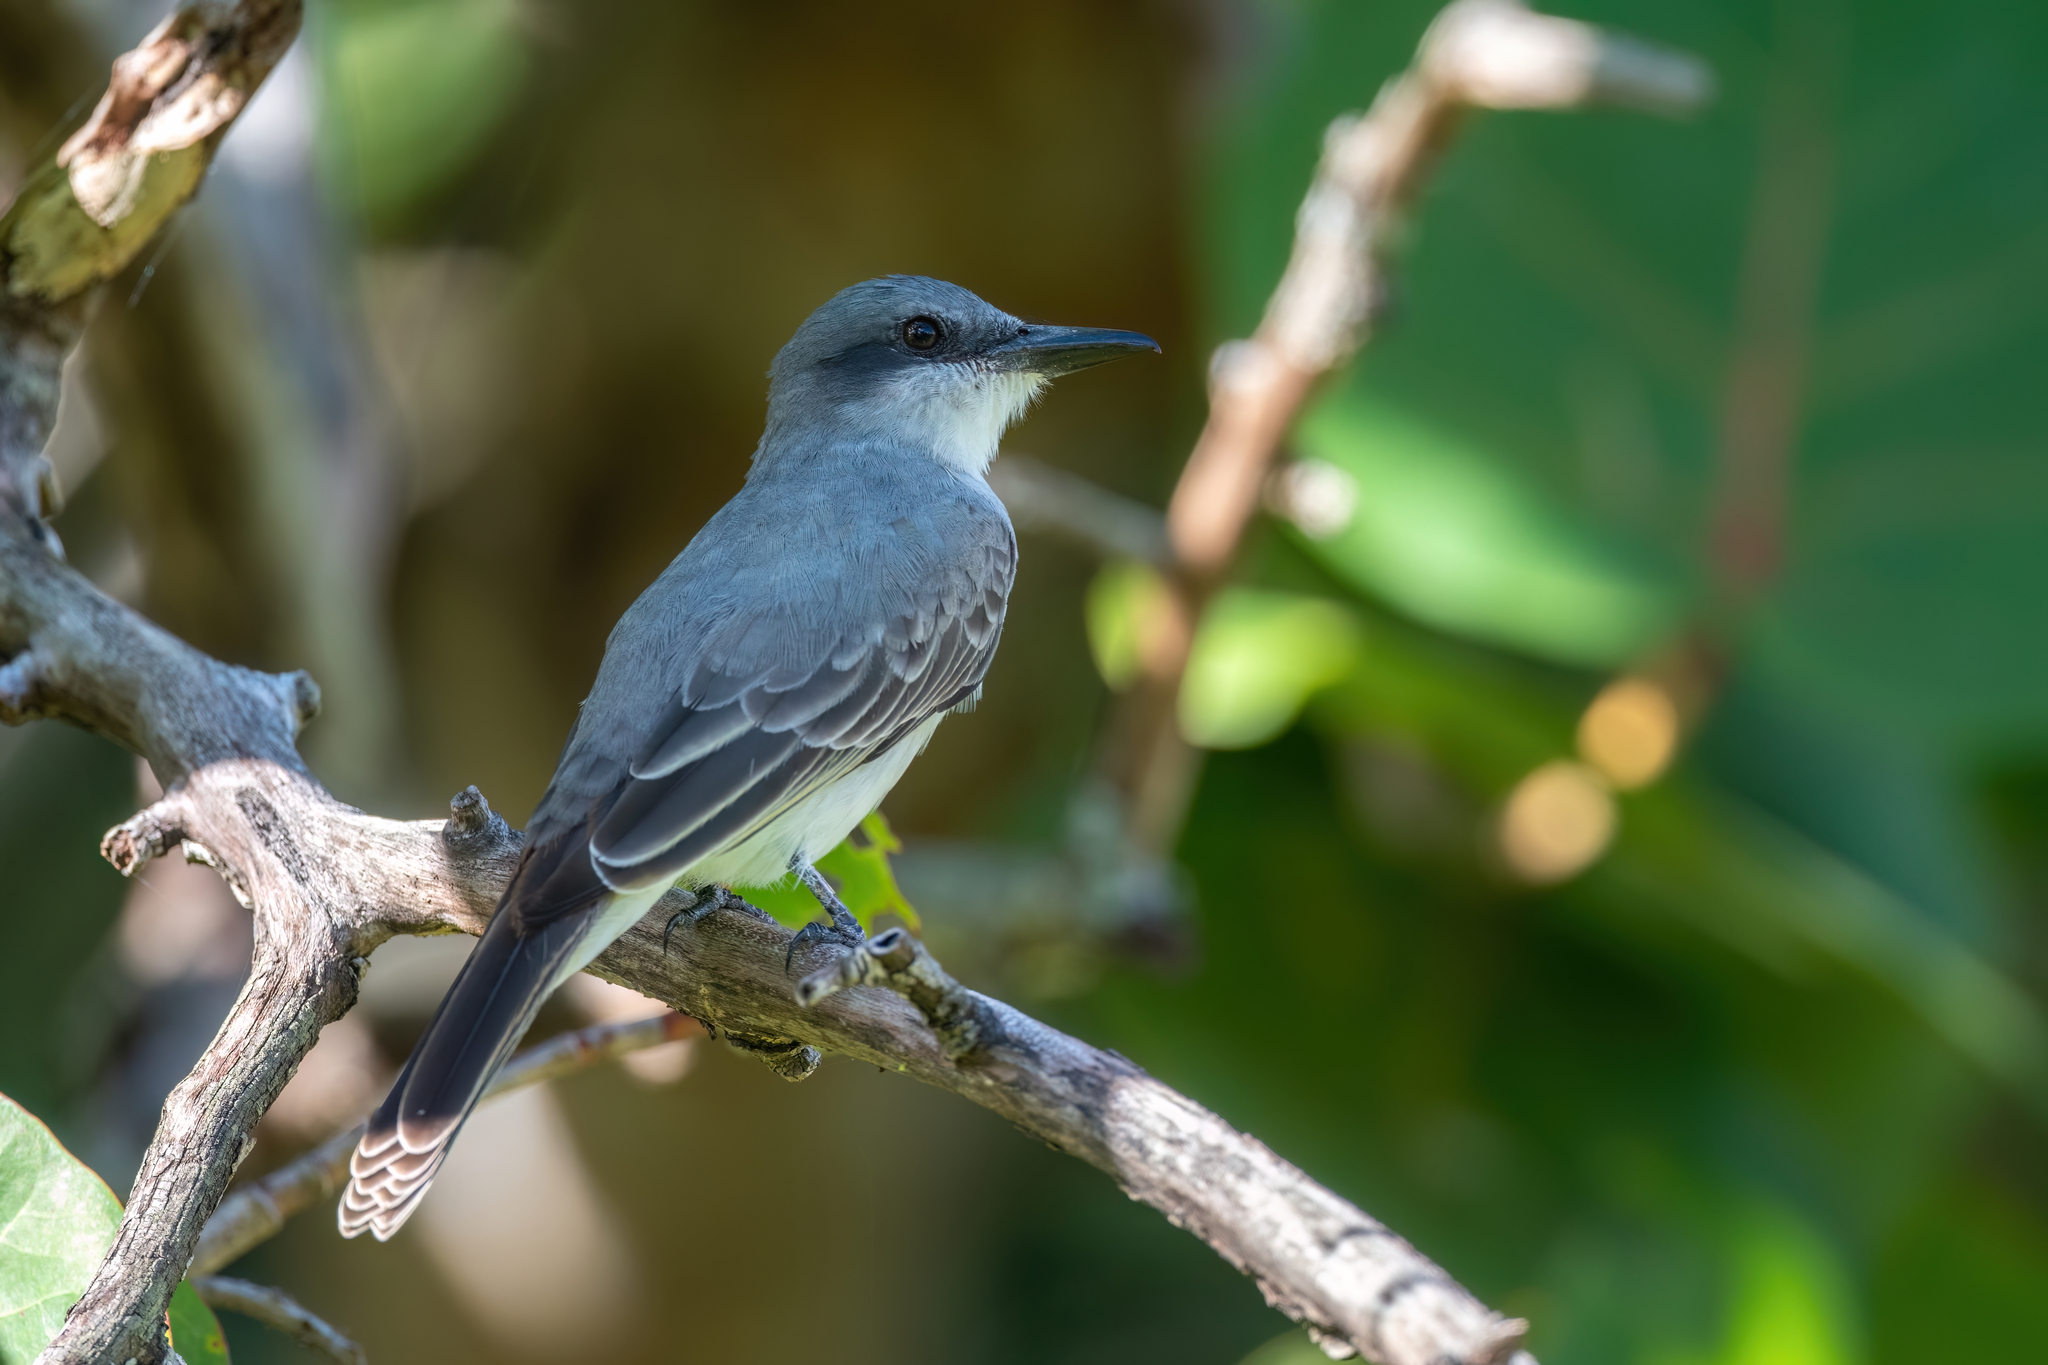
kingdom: Animalia
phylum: Chordata
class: Aves
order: Passeriformes
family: Tyrannidae
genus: Tyrannus
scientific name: Tyrannus dominicensis
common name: Gray kingbird
